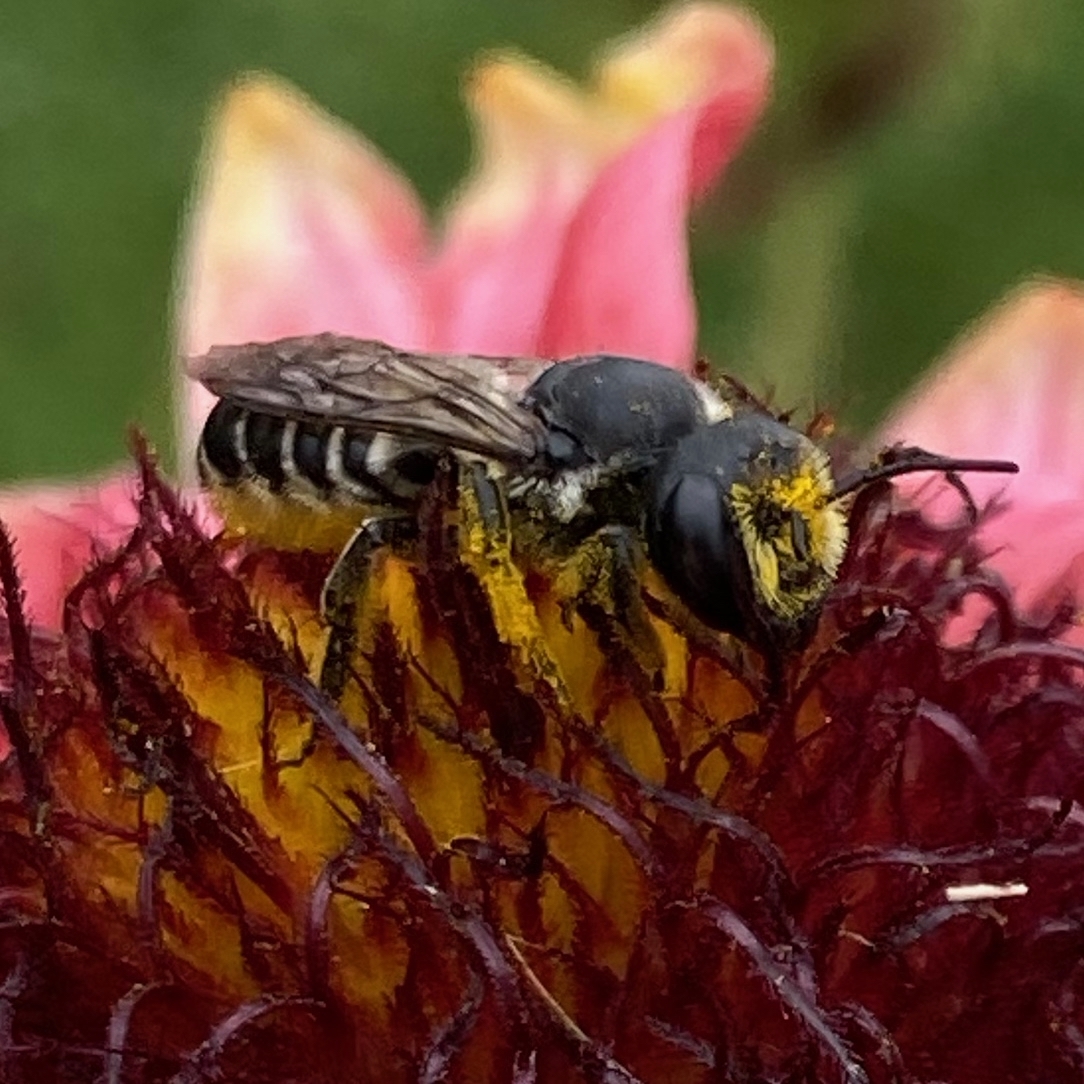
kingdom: Animalia
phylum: Arthropoda
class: Insecta
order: Hymenoptera
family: Megachilidae
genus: Megachile
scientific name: Megachile montivaga
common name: Silver-tailed petalcutter bee
